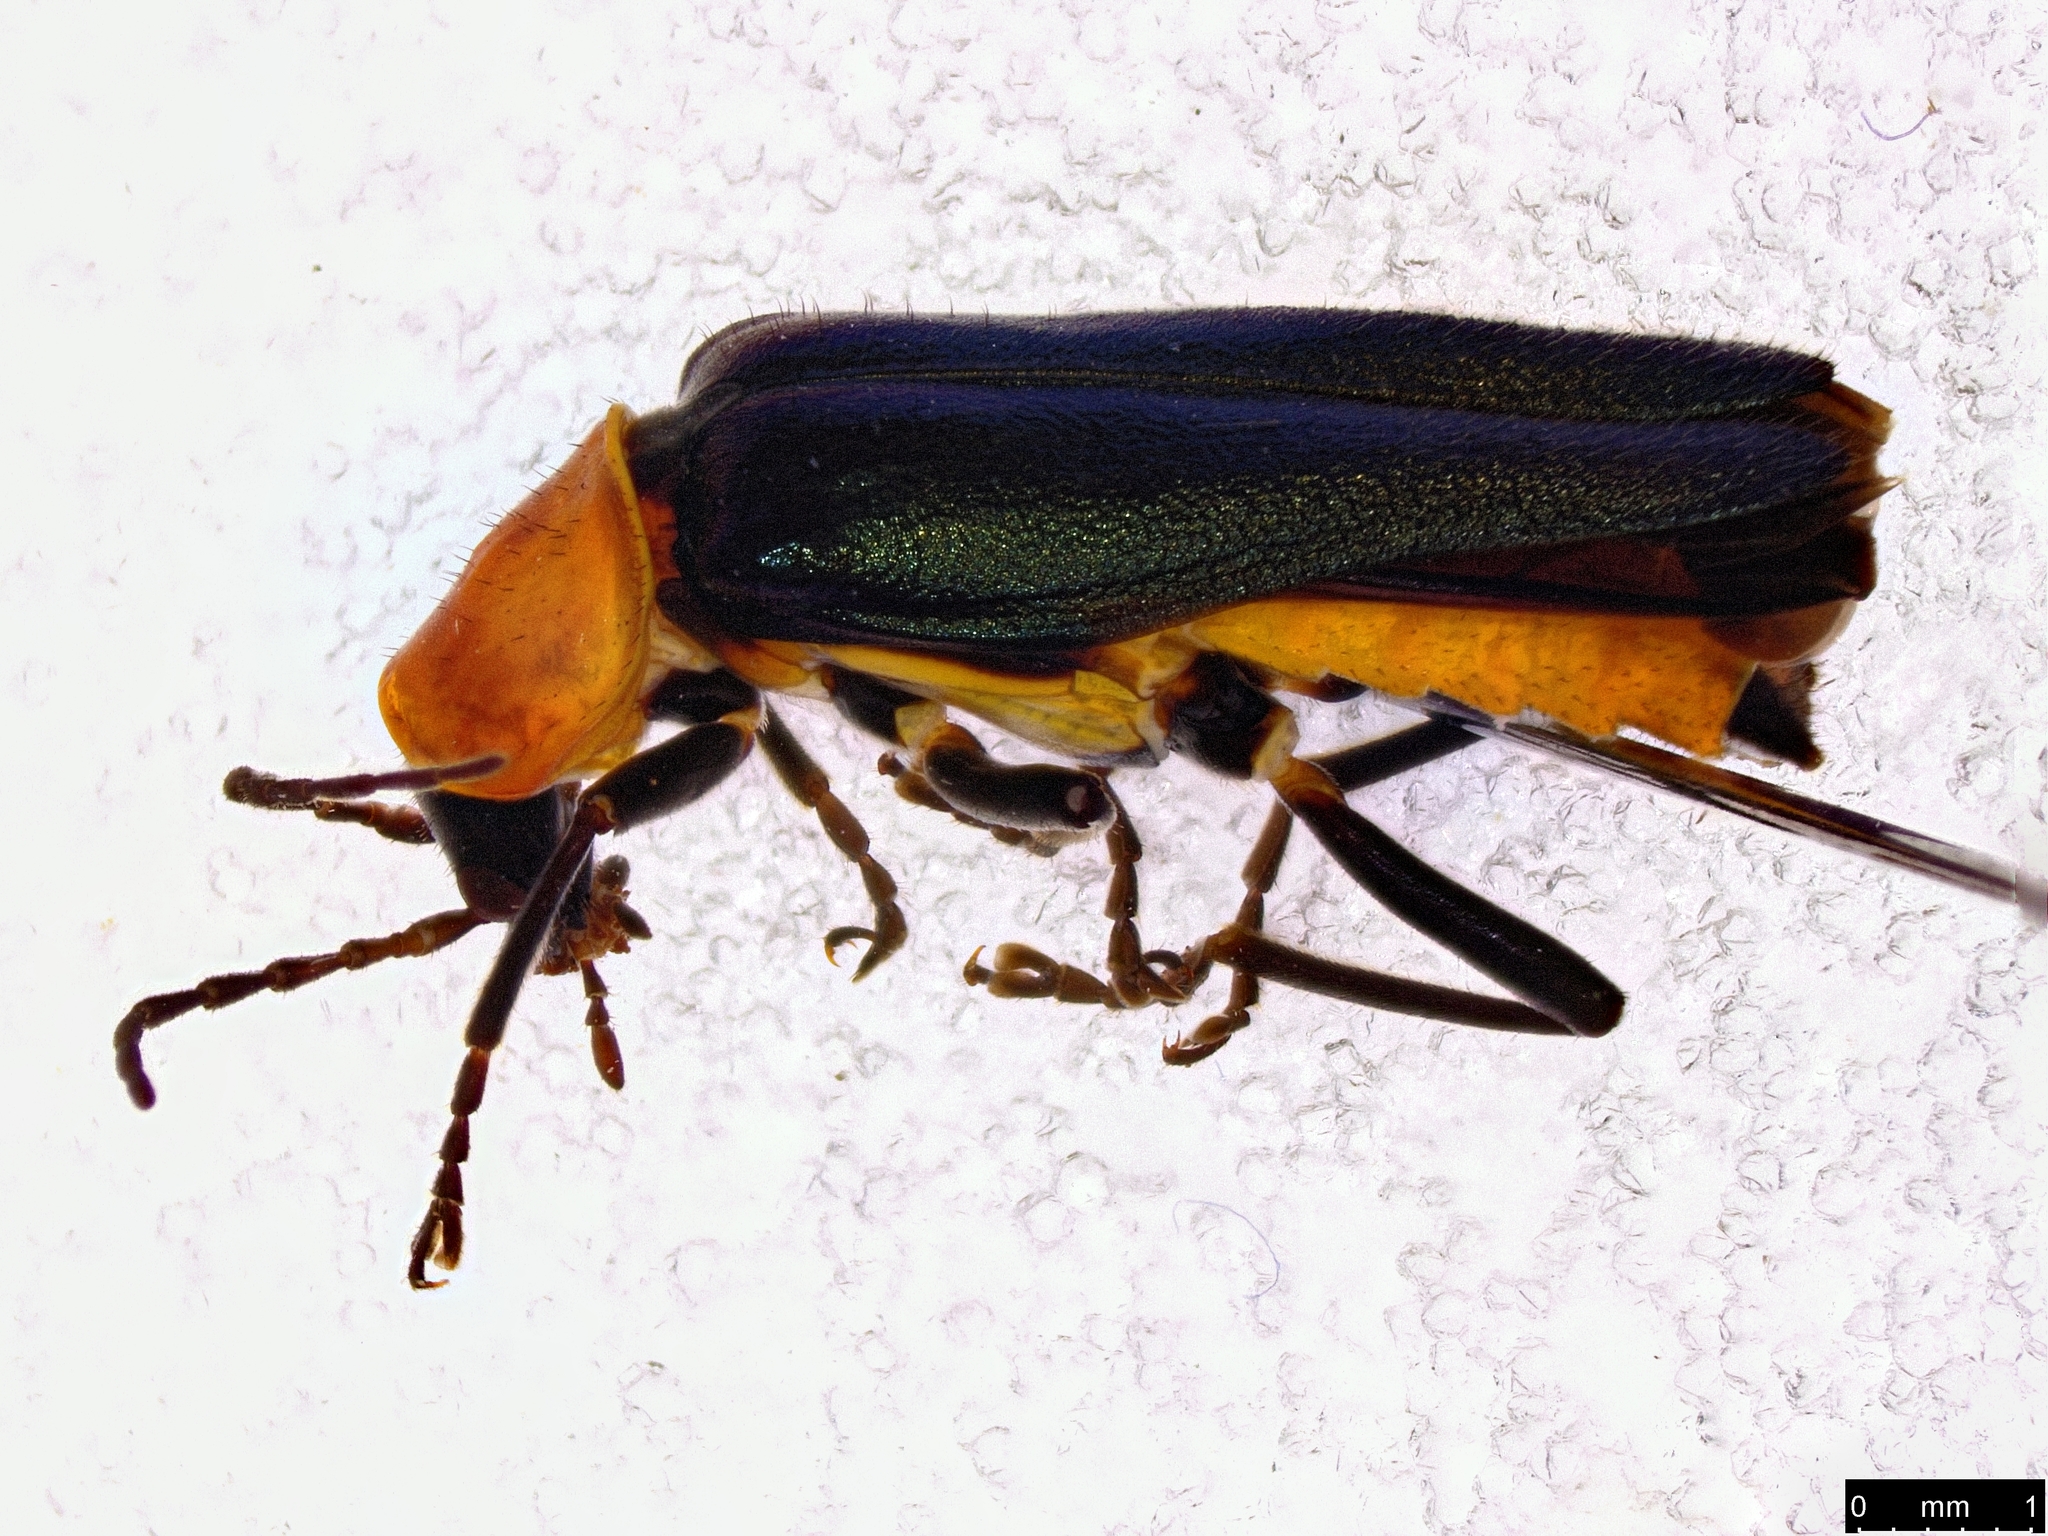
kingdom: Animalia
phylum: Arthropoda
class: Insecta
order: Coleoptera
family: Cantharidae
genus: Chauliognathus
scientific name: Chauliognathus
